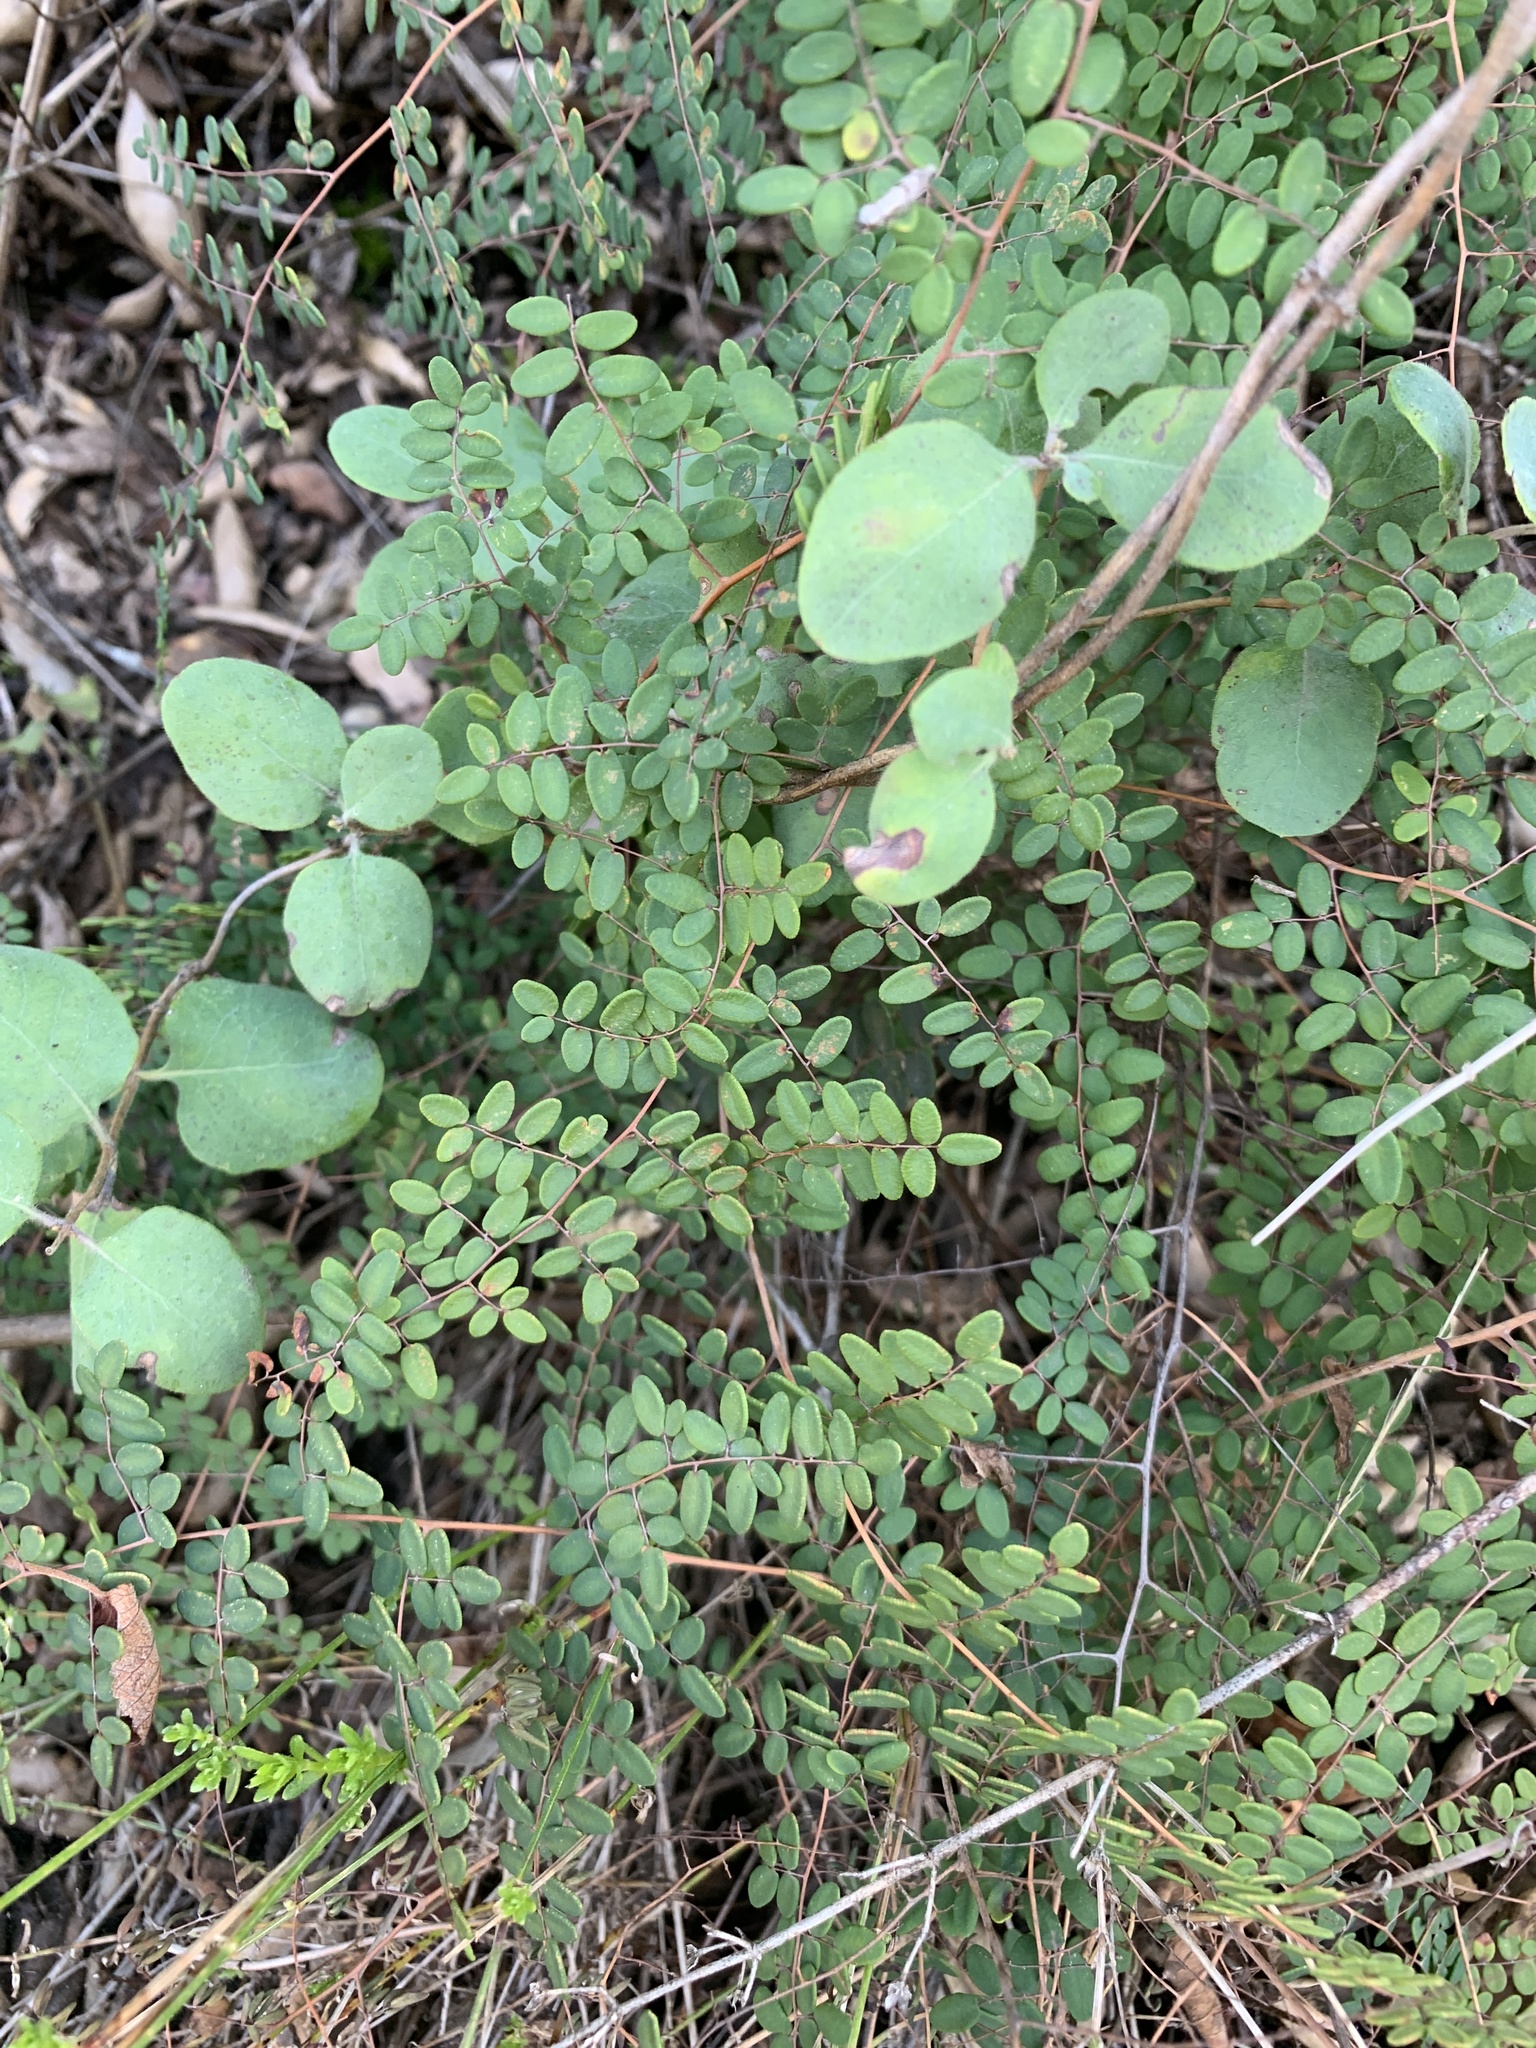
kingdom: Plantae
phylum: Tracheophyta
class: Polypodiopsida
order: Polypodiales
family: Pteridaceae
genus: Pellaea
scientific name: Pellaea andromedifolia
